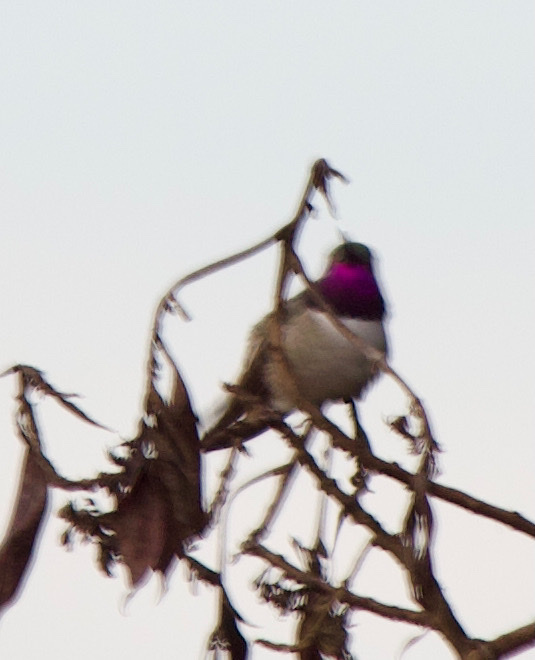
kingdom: Animalia
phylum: Chordata
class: Aves
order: Apodiformes
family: Trochilidae
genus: Rhodopis
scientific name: Rhodopis vesper
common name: Oasis hummingbird
